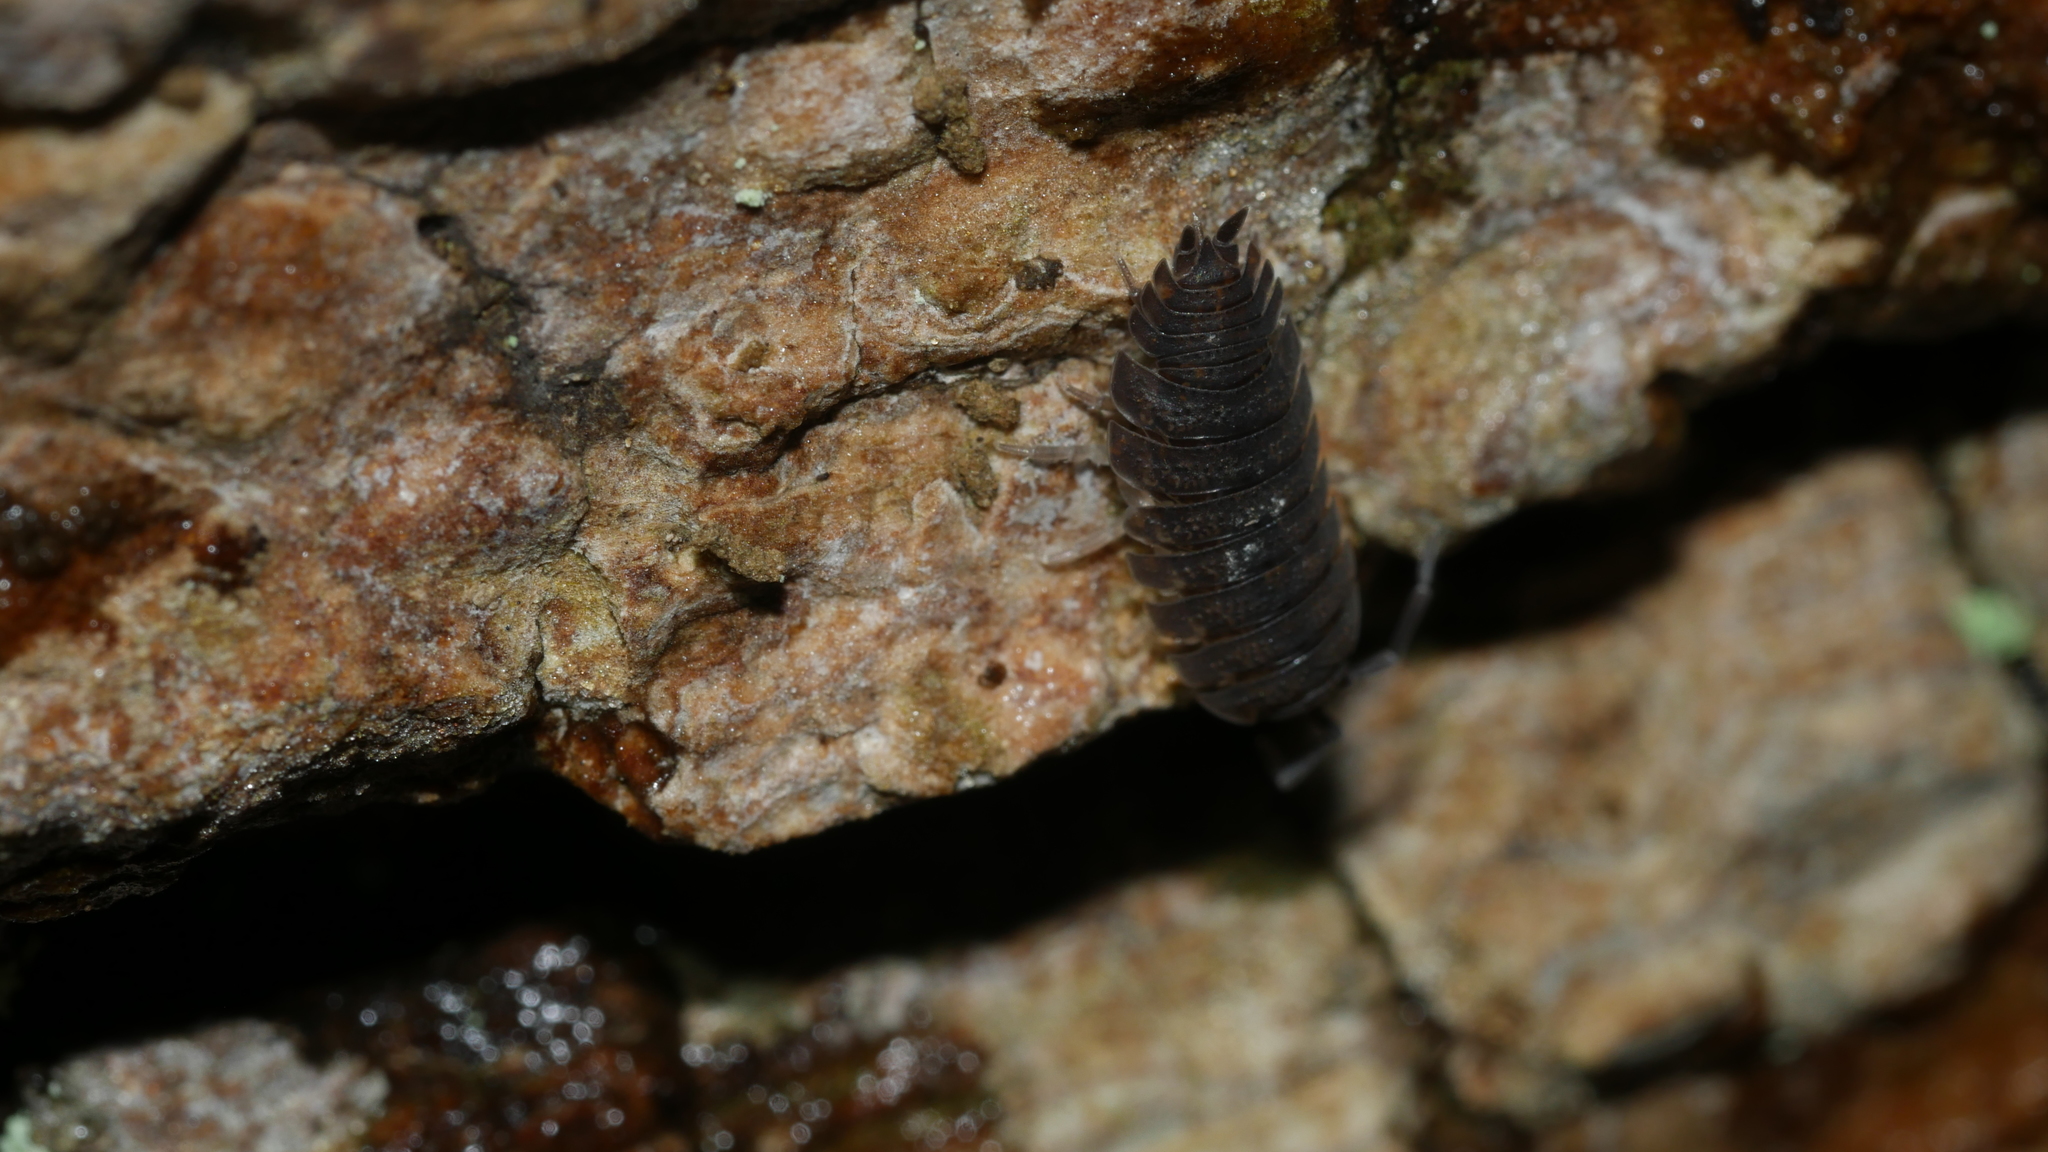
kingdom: Animalia
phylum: Arthropoda
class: Malacostraca
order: Isopoda
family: Porcellionidae
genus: Porcellio
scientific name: Porcellio scaber
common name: Common rough woodlouse
